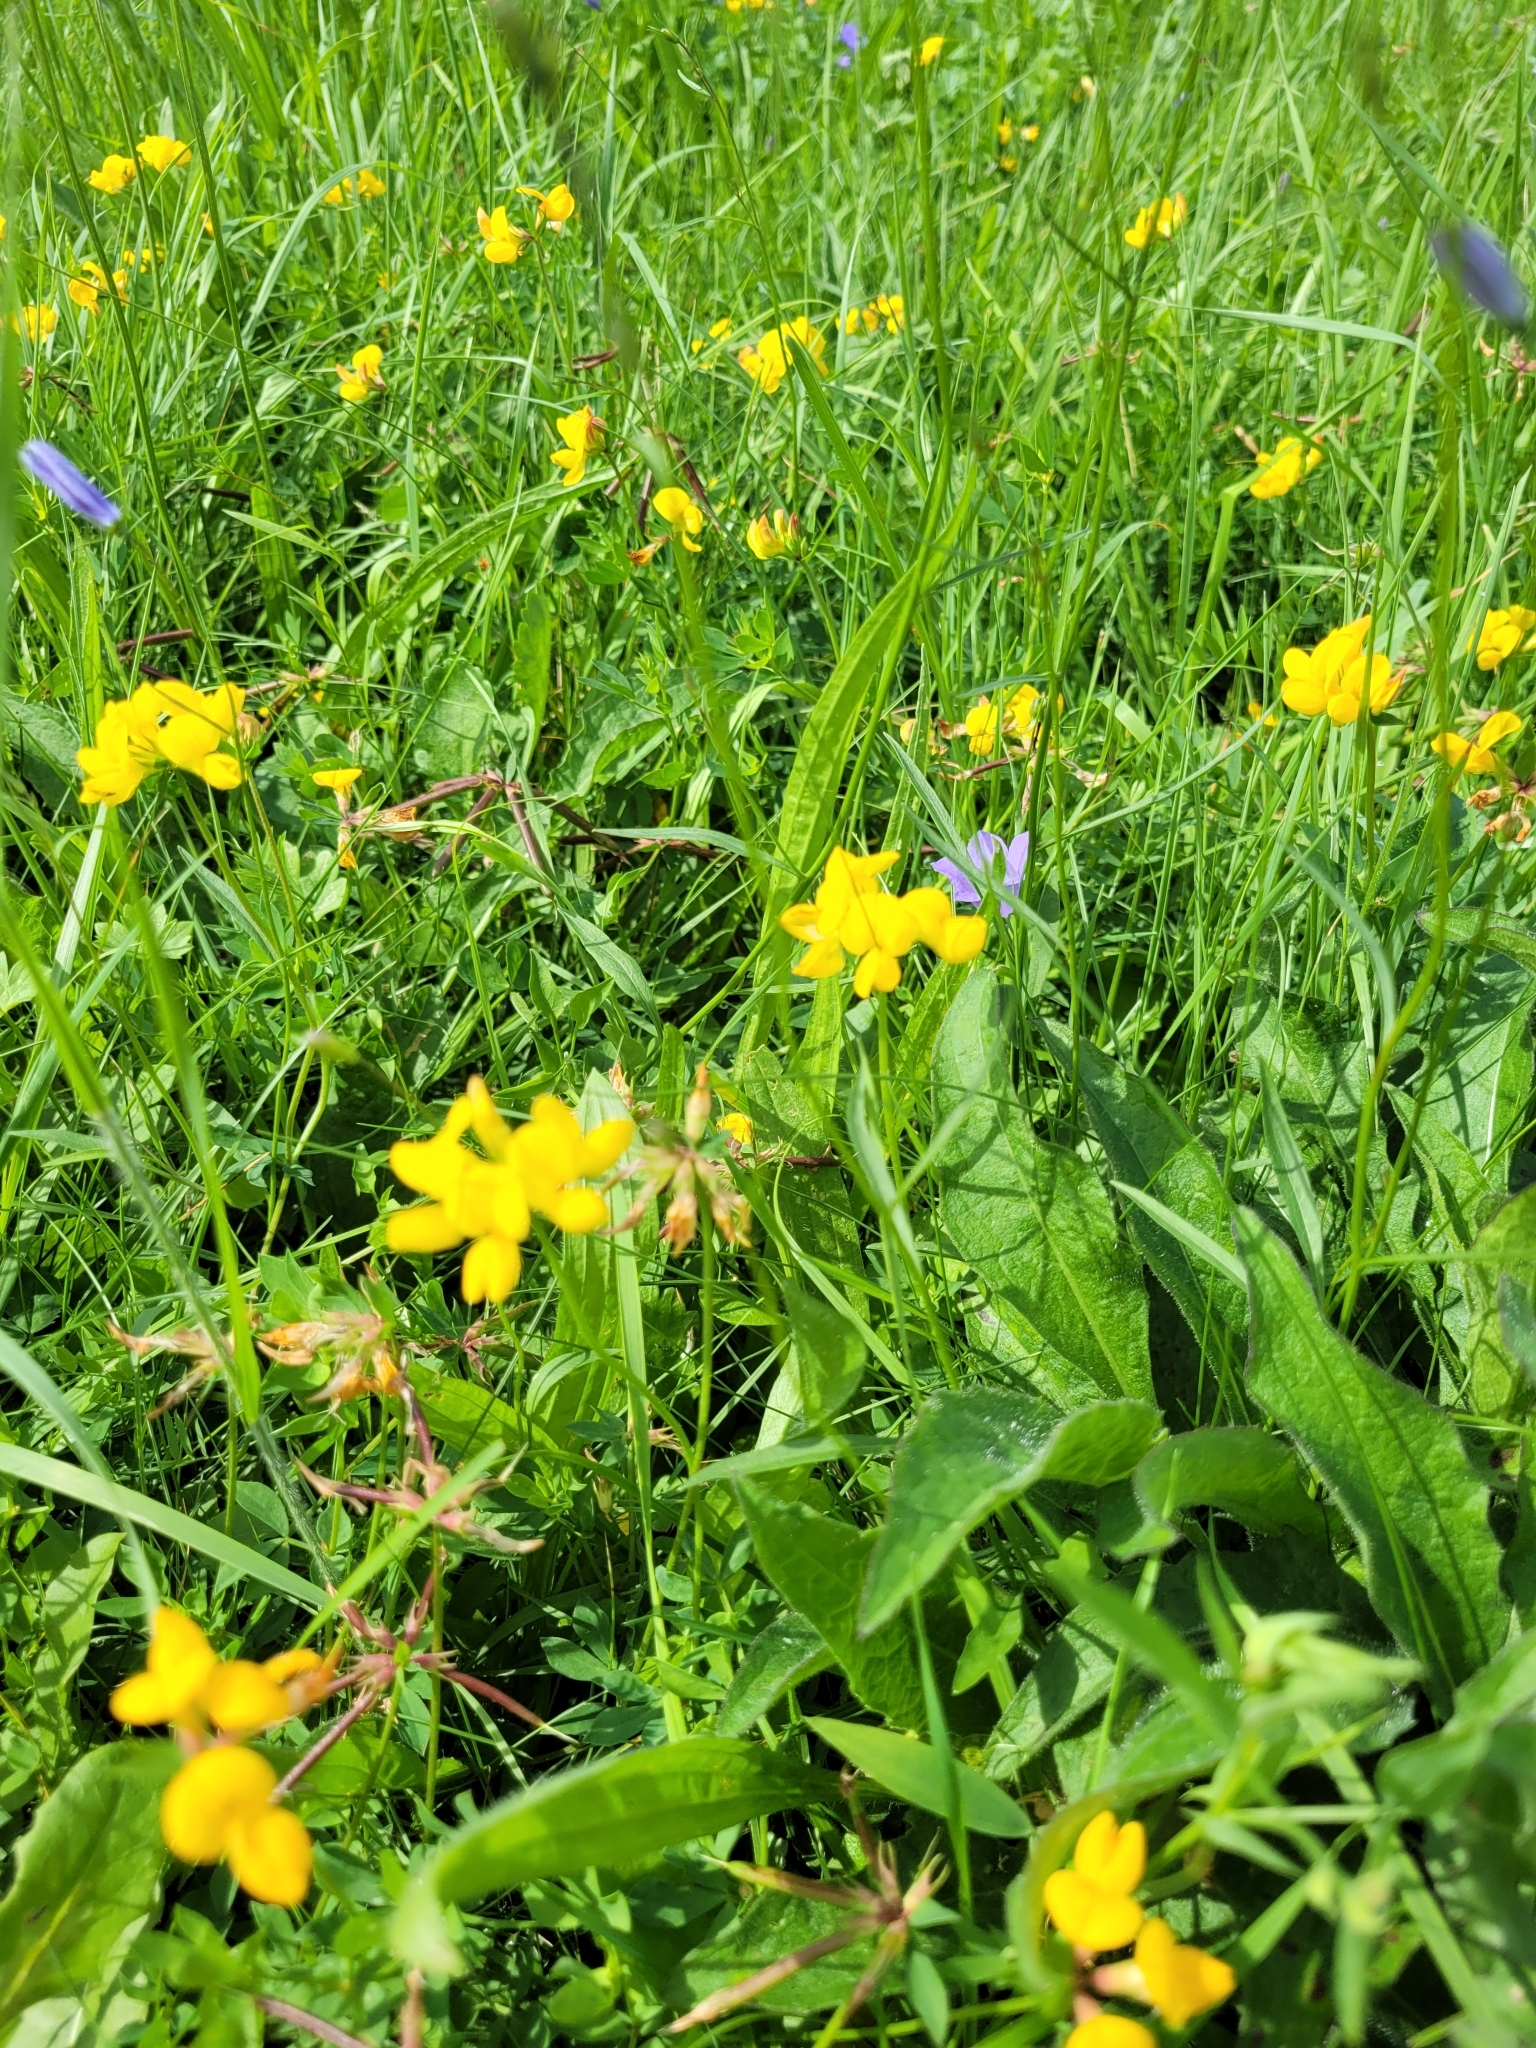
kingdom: Plantae
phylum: Tracheophyta
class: Magnoliopsida
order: Fabales
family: Fabaceae
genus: Lotus
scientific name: Lotus corniculatus
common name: Common bird's-foot-trefoil
